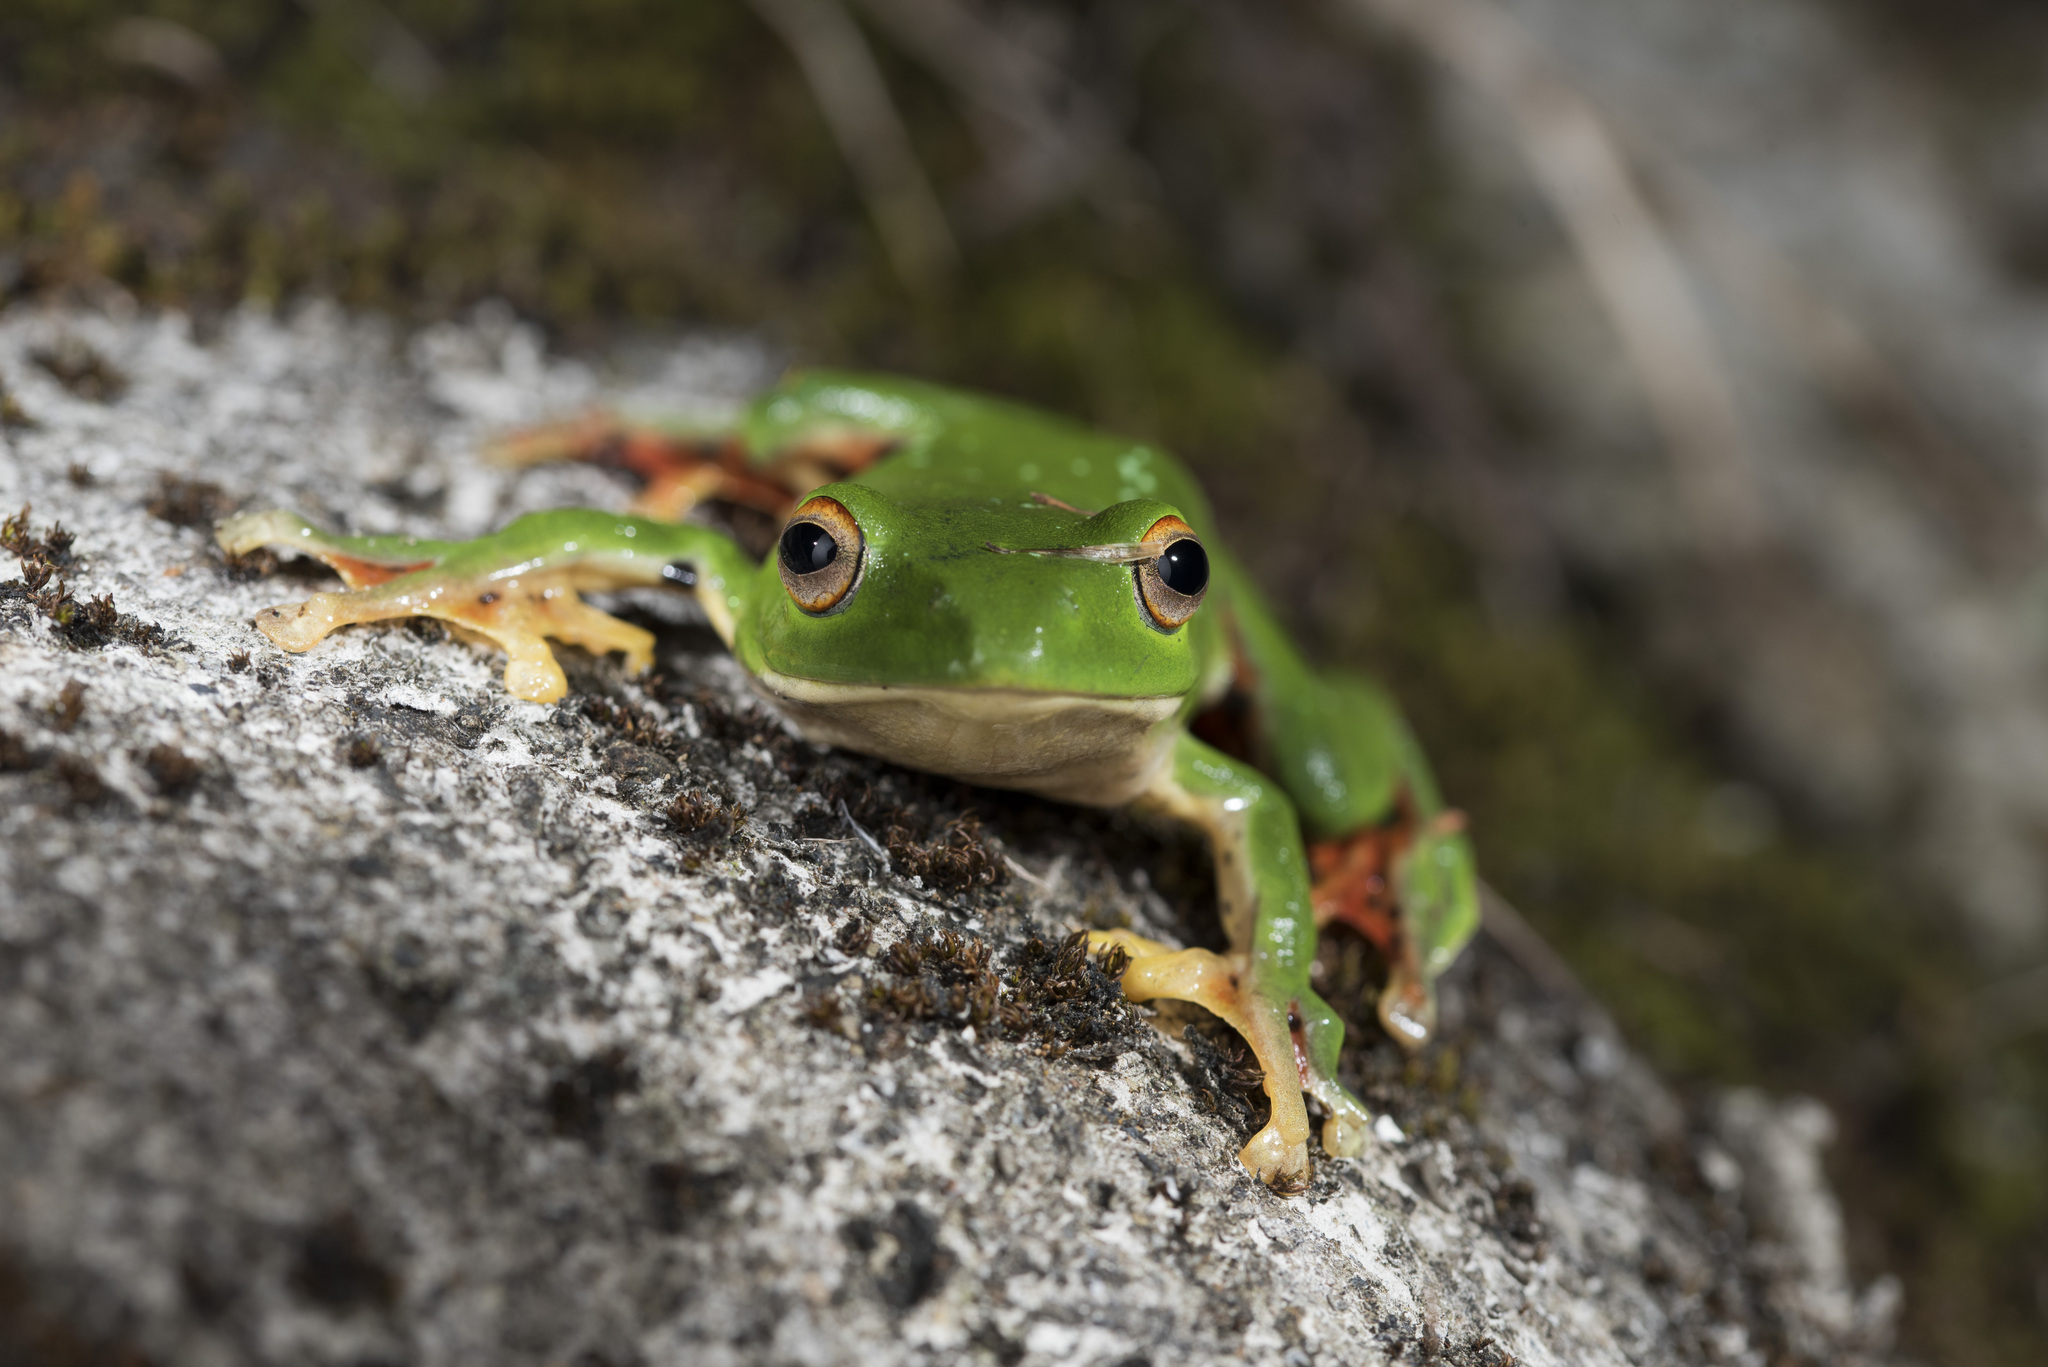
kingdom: Animalia
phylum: Chordata
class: Amphibia
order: Anura
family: Rhacophoridae
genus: Zhangixalus
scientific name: Zhangixalus moltrechti
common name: Moltrecht's treefrog
